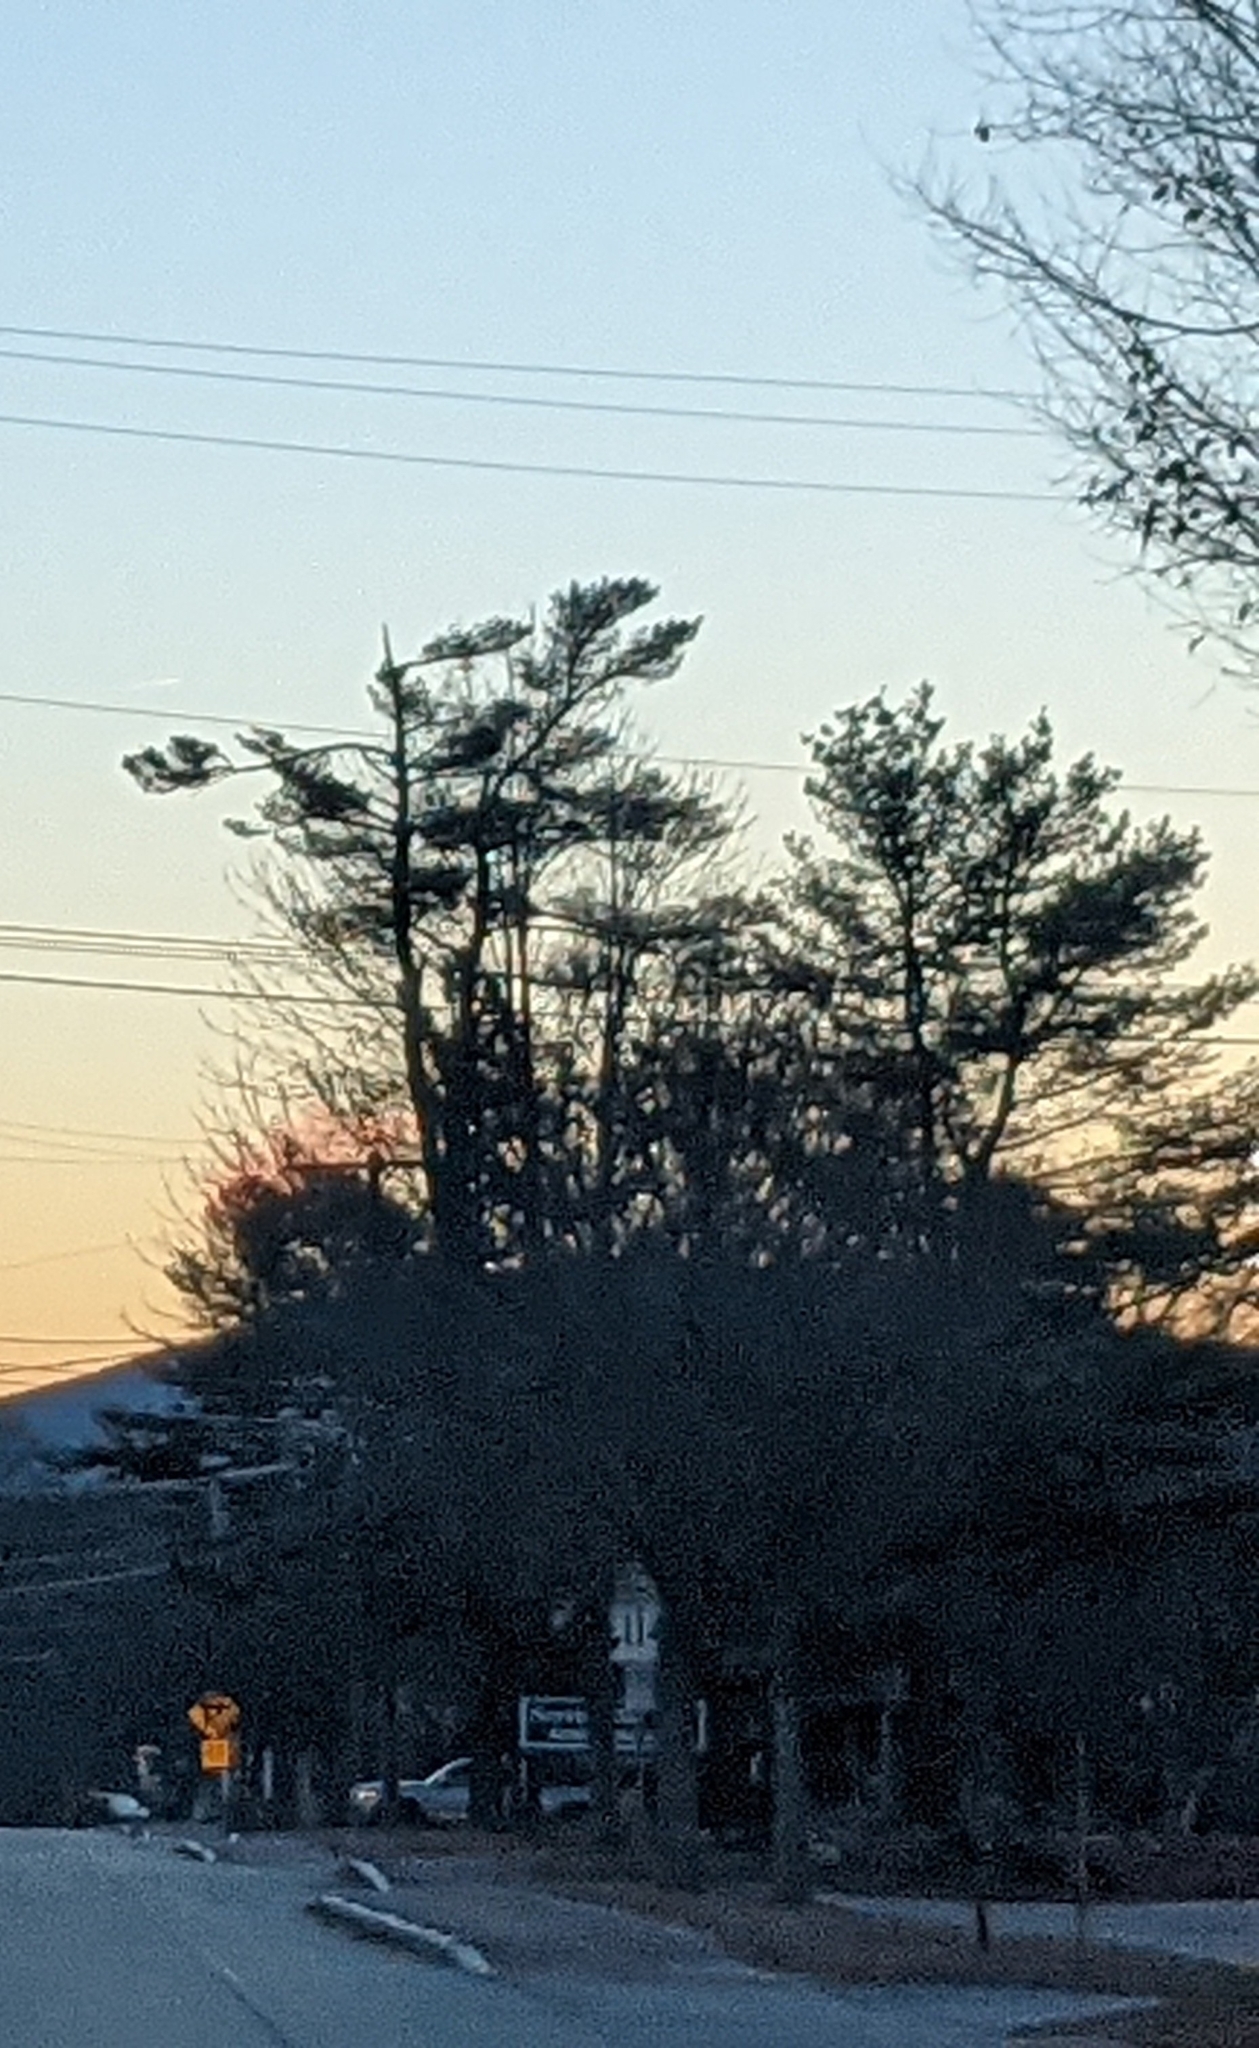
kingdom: Plantae
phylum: Tracheophyta
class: Pinopsida
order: Pinales
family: Pinaceae
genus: Pinus
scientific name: Pinus strobus
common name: Weymouth pine
